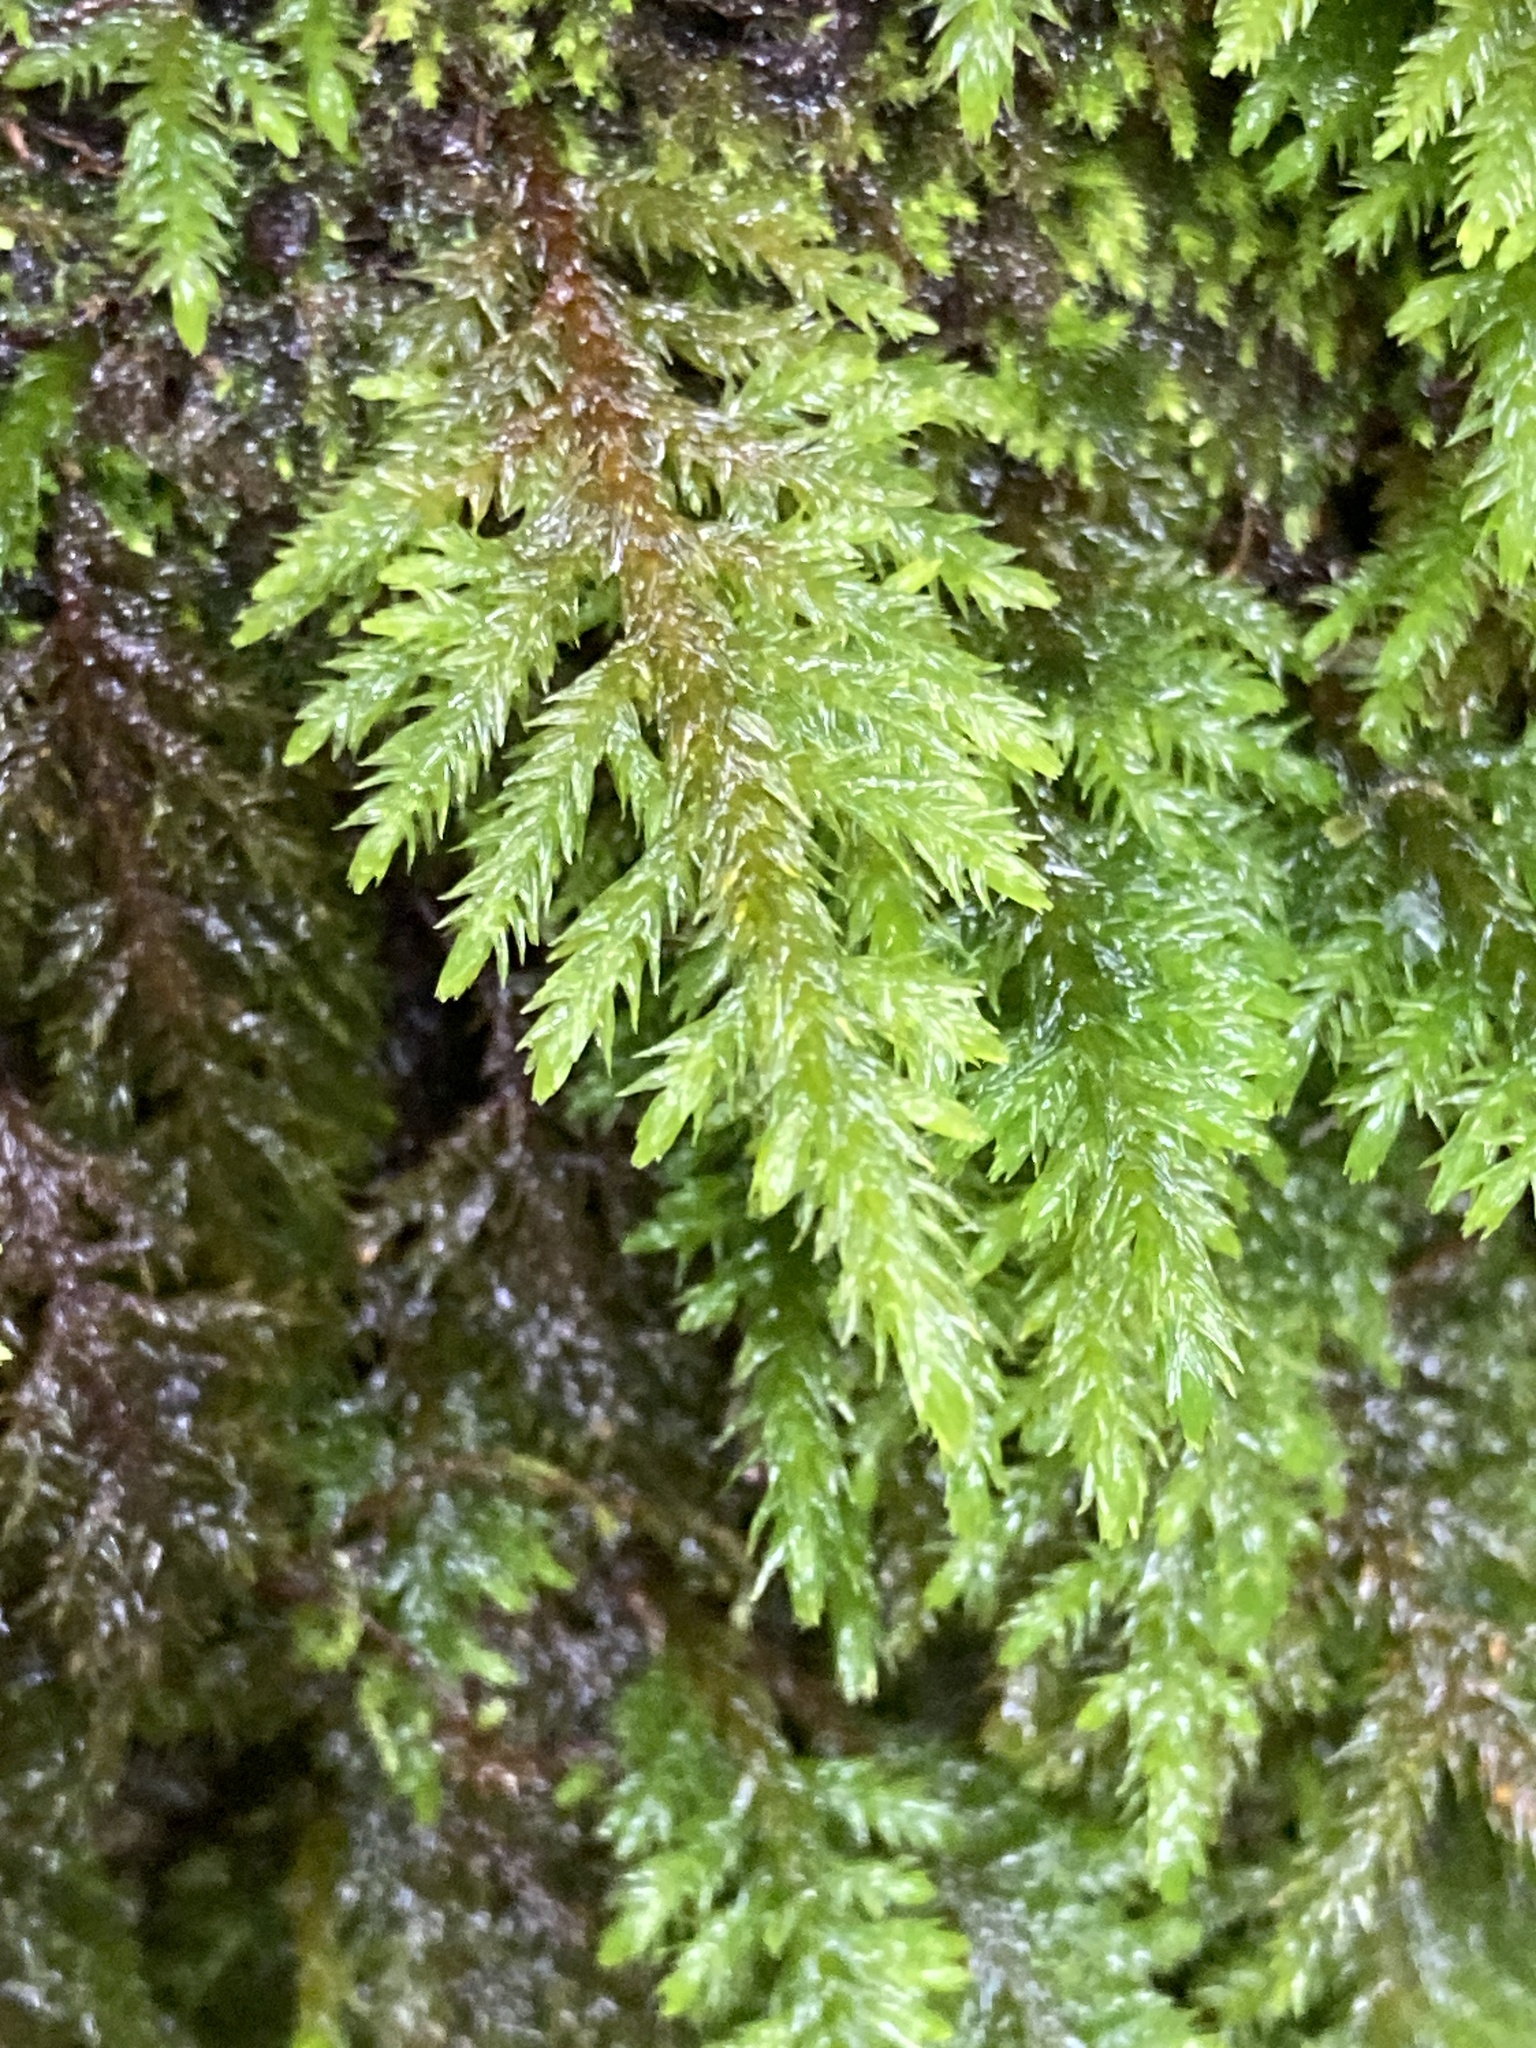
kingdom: Plantae
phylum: Bryophyta
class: Bryopsida
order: Hypnales
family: Cryphaeaceae
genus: Dendroalsia
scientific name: Dendroalsia abietina
